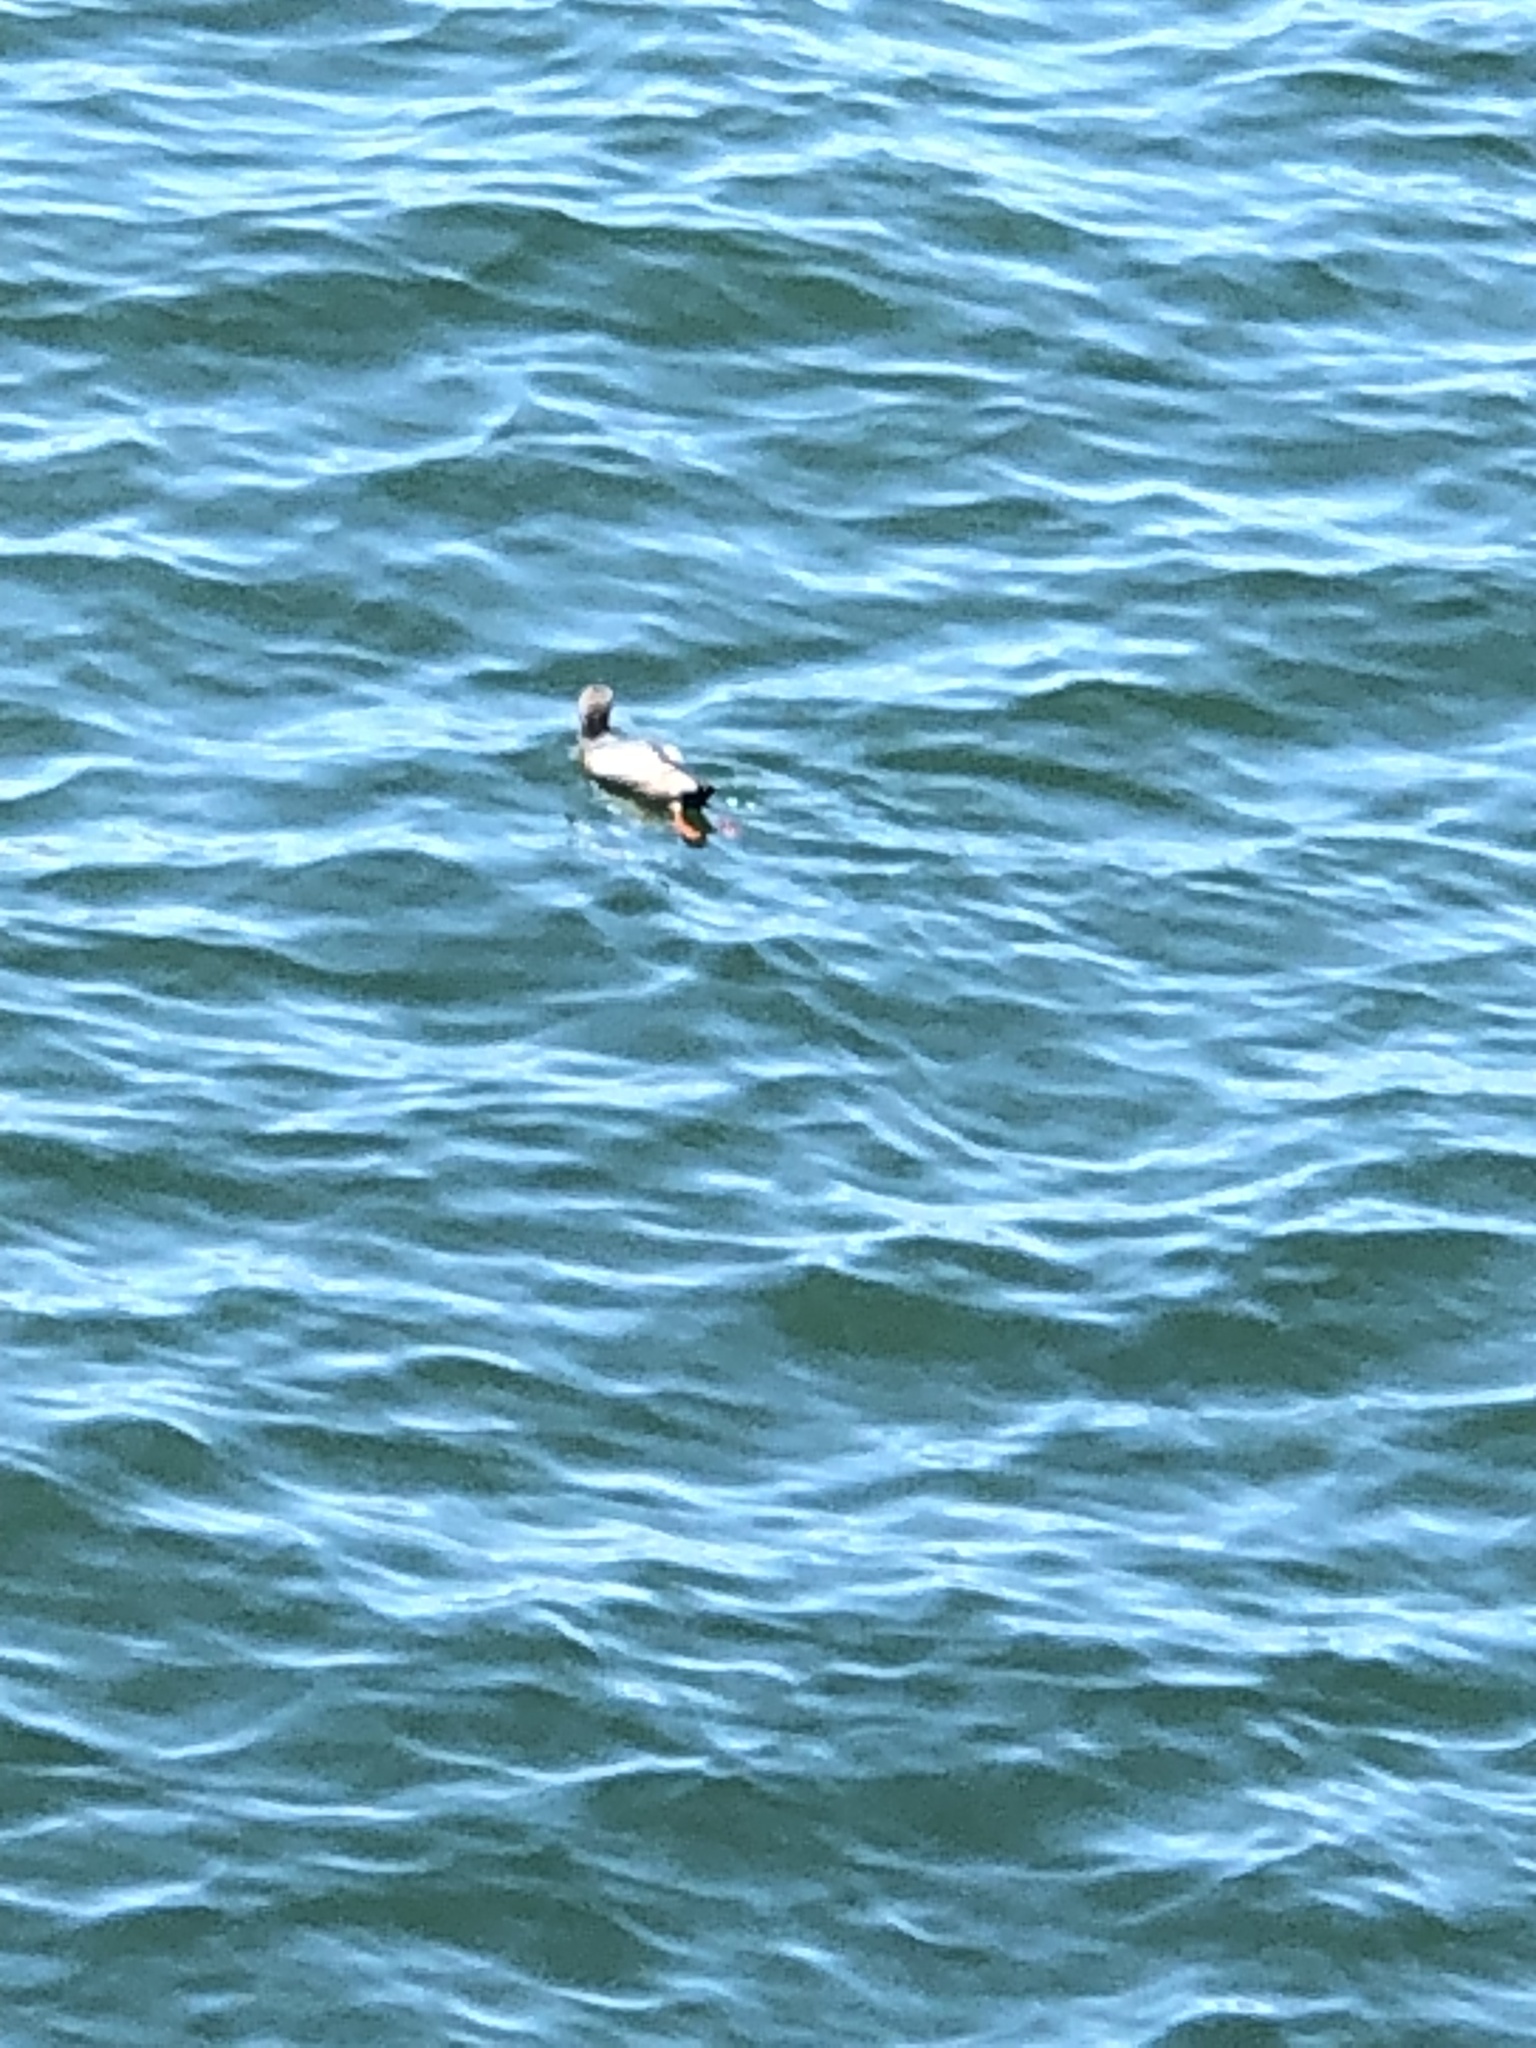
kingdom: Animalia
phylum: Chordata
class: Aves
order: Charadriiformes
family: Alcidae
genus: Cepphus
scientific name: Cepphus columba
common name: Pigeon guillemot
